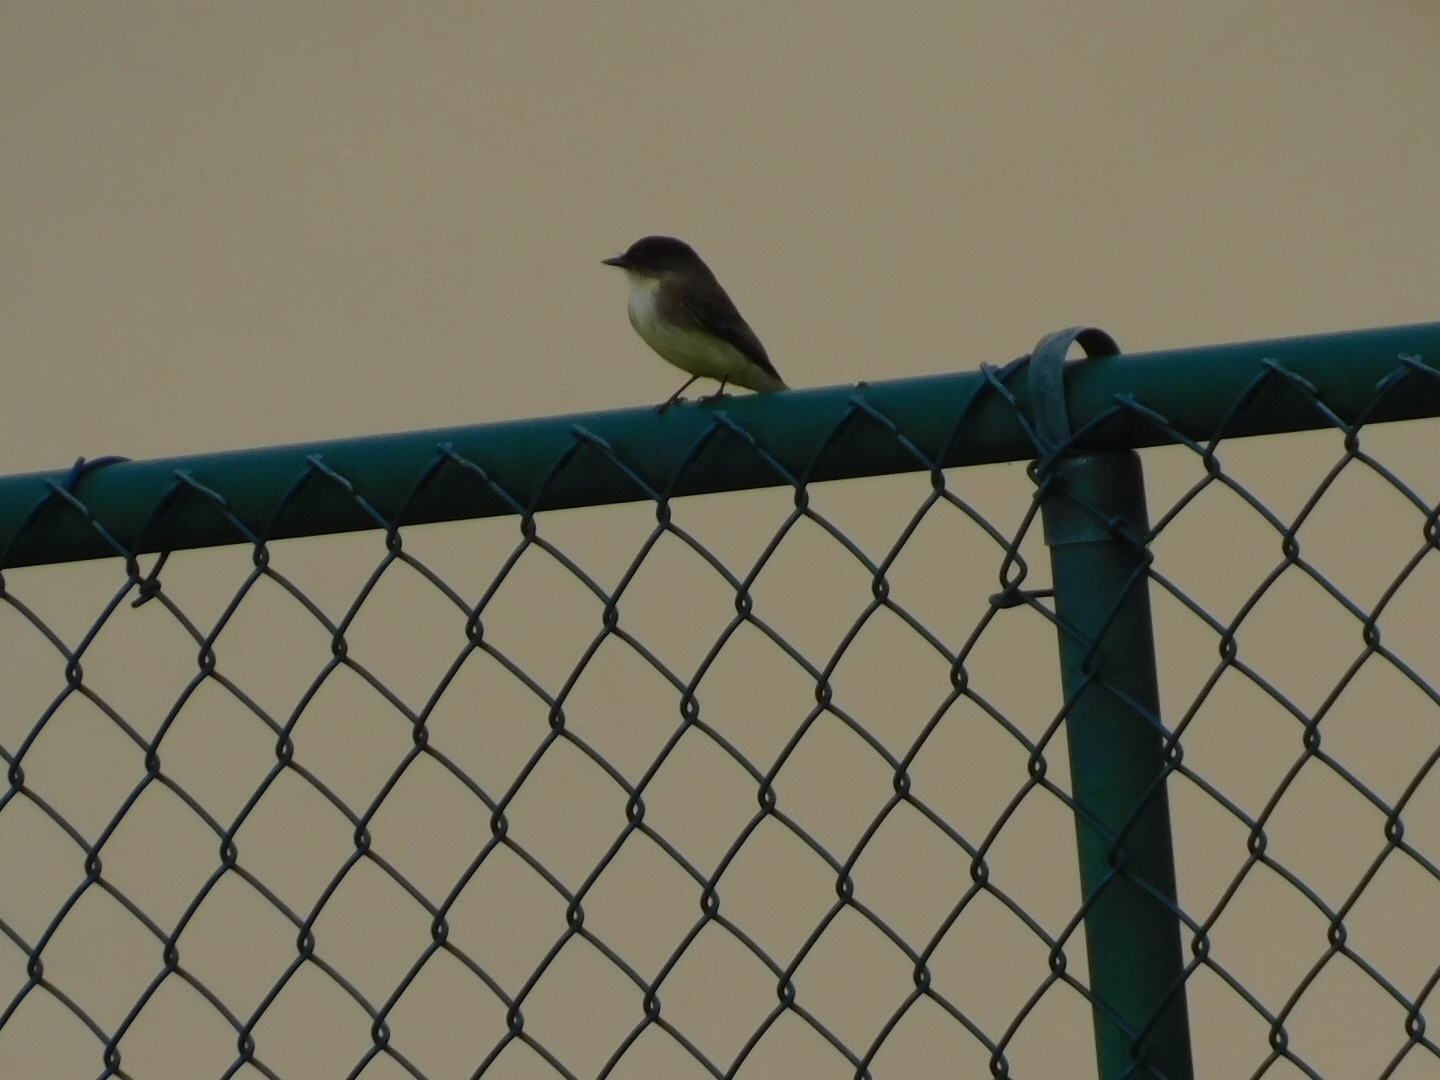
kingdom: Animalia
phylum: Chordata
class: Aves
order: Passeriformes
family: Tyrannidae
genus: Sayornis
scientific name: Sayornis phoebe
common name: Eastern phoebe
